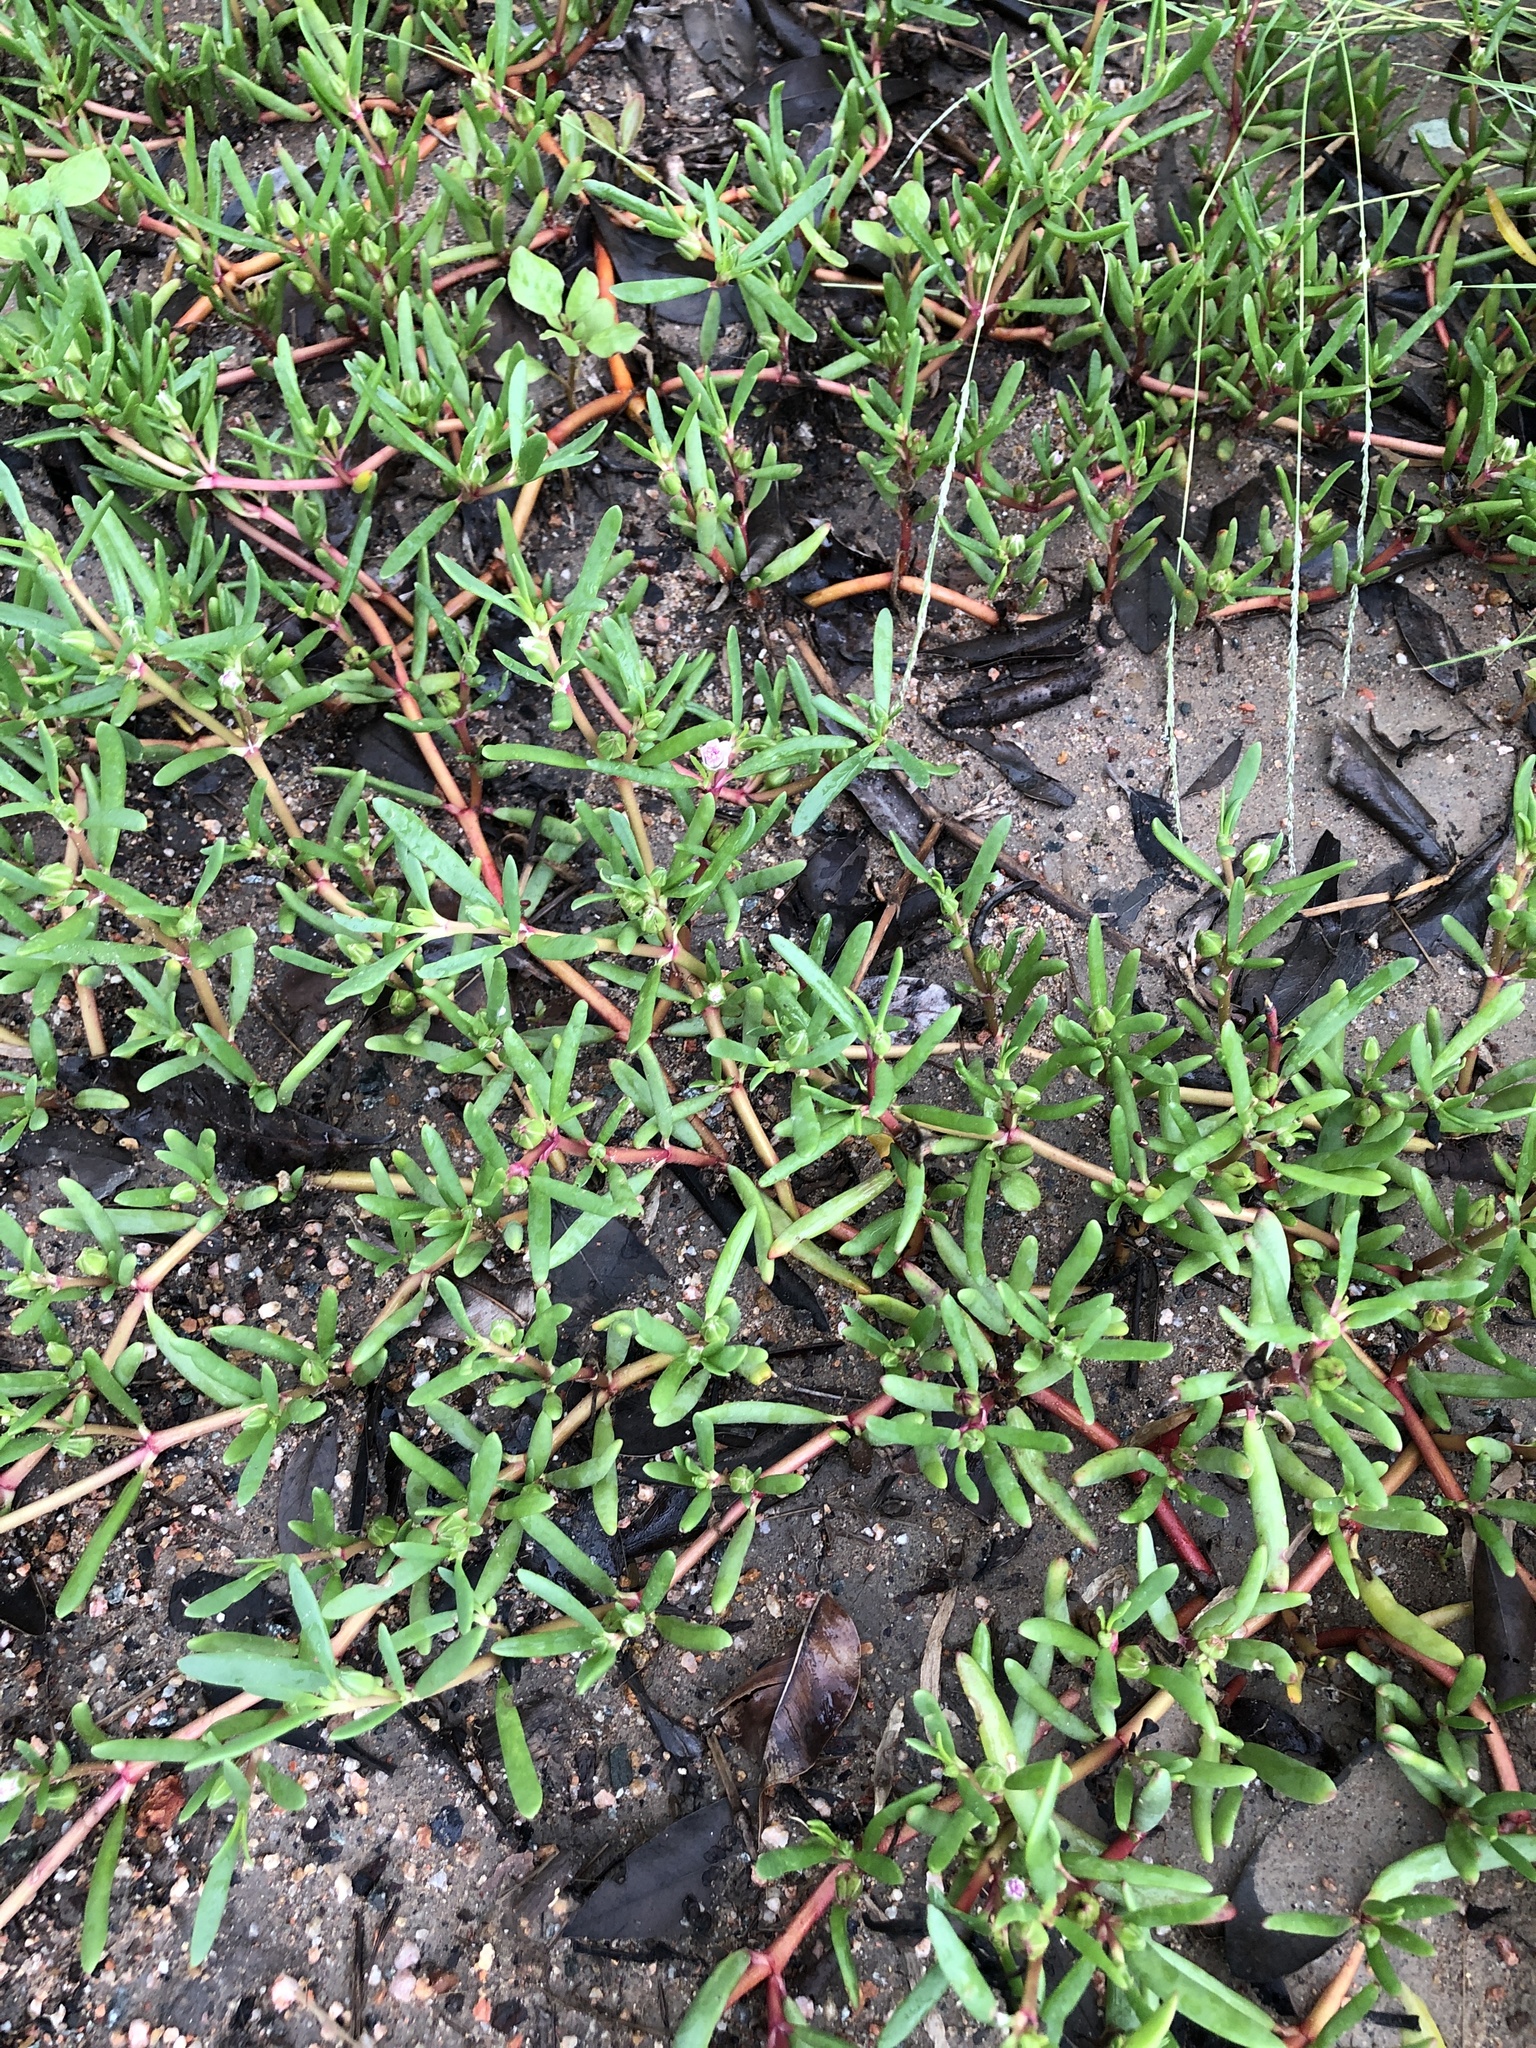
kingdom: Plantae
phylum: Tracheophyta
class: Magnoliopsida
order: Caryophyllales
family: Aizoaceae
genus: Sesuvium
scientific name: Sesuvium portulacastrum
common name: Sea-purslane
